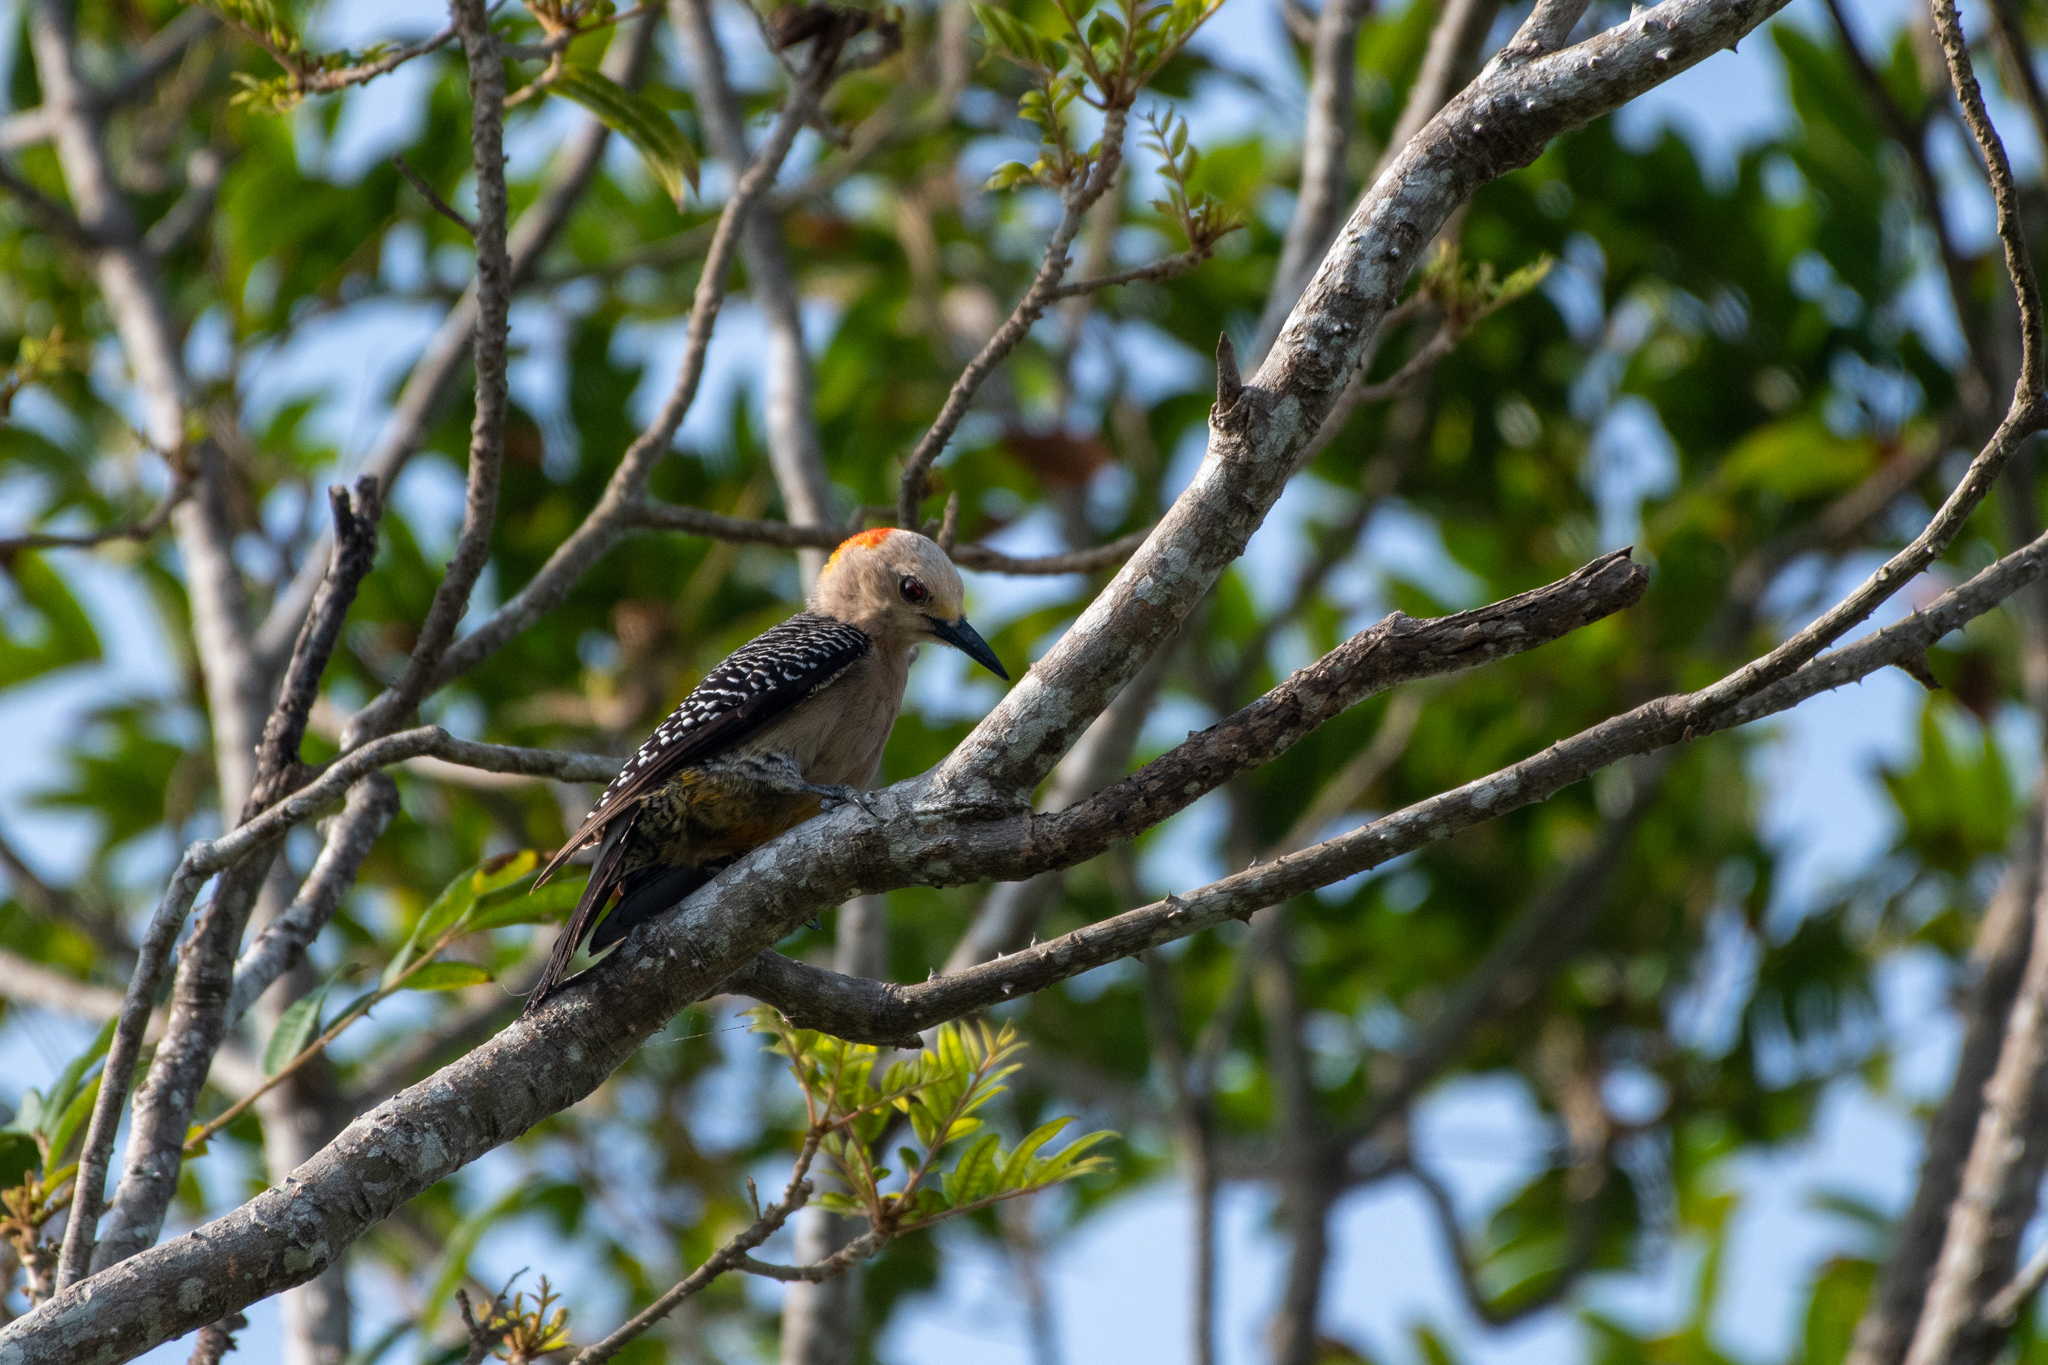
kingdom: Animalia
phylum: Chordata
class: Aves
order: Piciformes
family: Picidae
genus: Melanerpes
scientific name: Melanerpes santacruzi
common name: Velasquez's woodpecker
